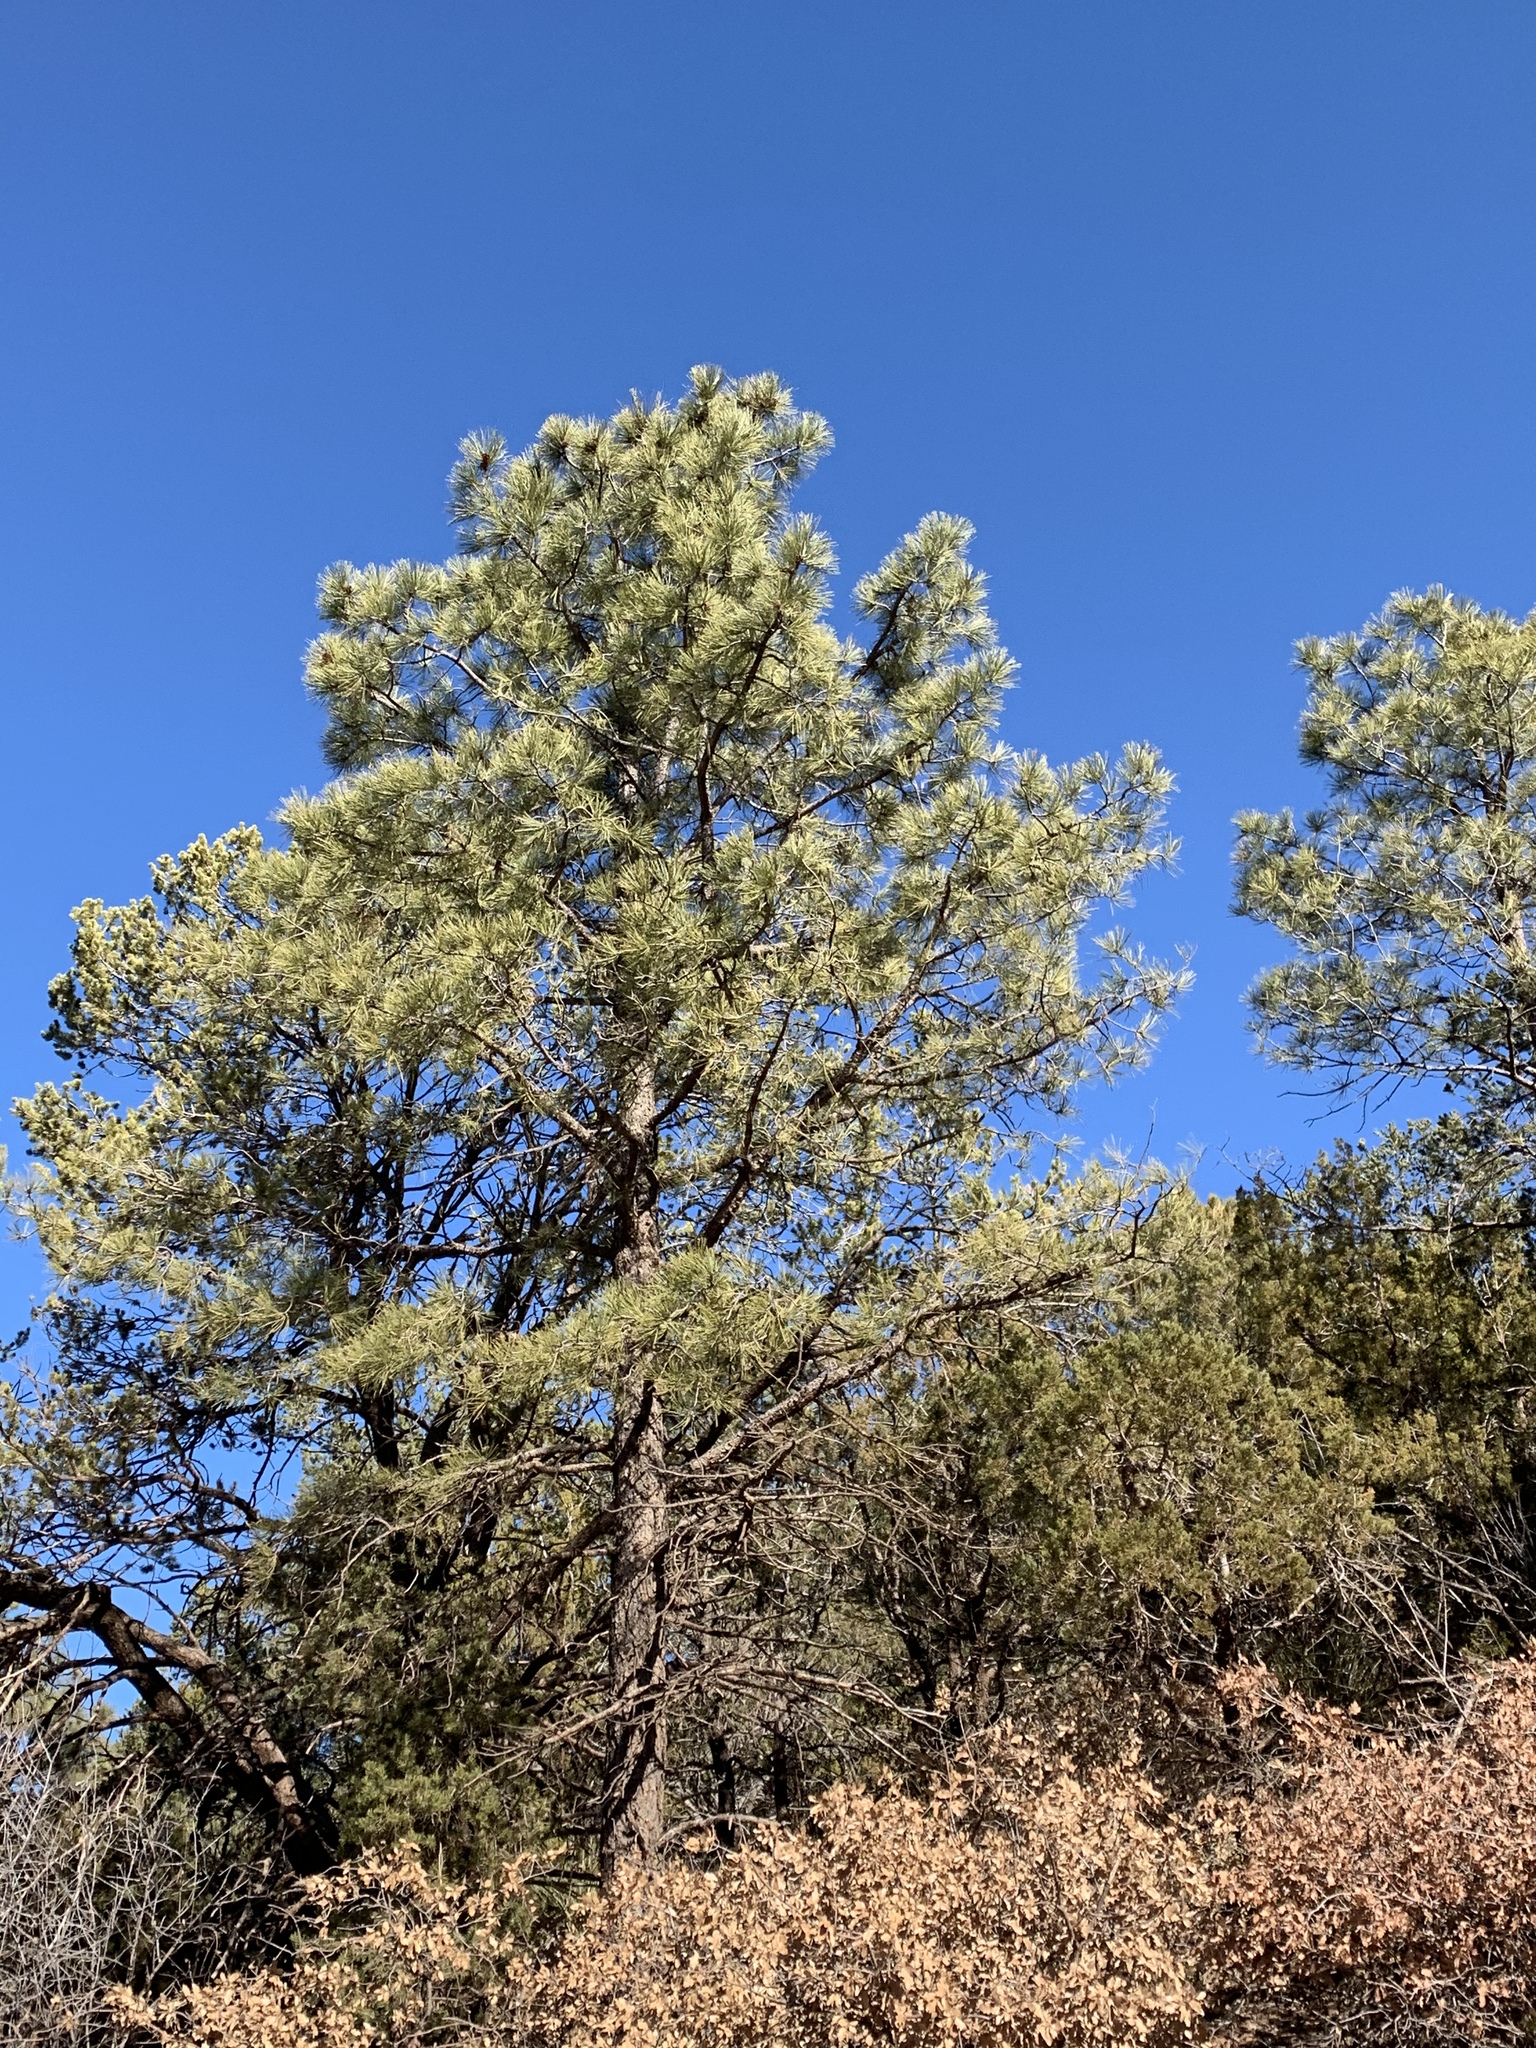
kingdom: Plantae
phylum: Tracheophyta
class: Pinopsida
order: Pinales
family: Pinaceae
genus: Pinus
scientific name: Pinus ponderosa
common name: Western yellow-pine
